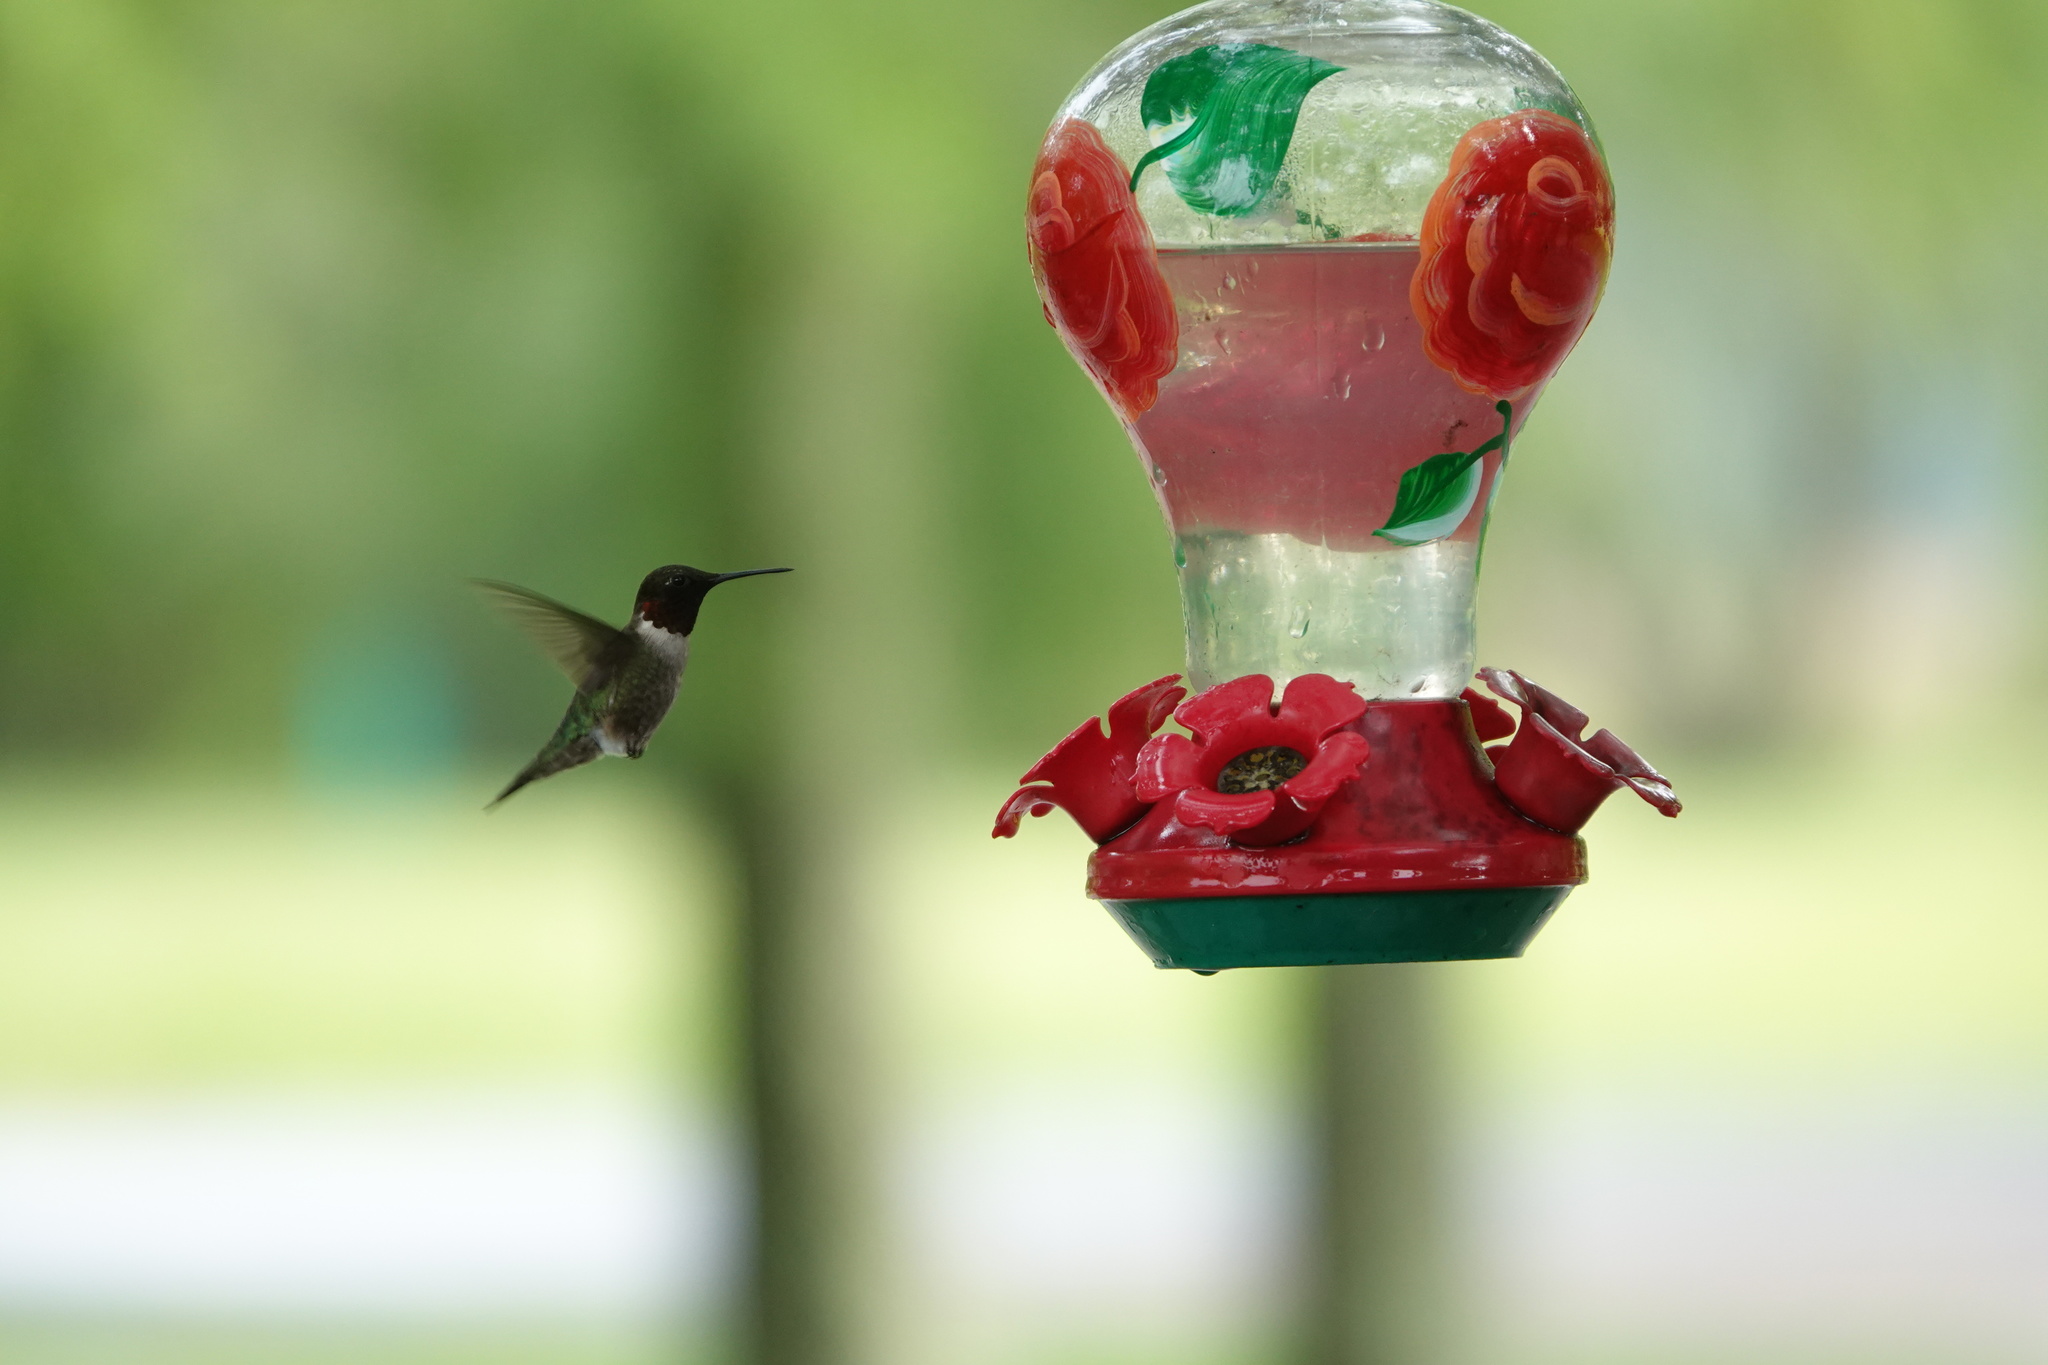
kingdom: Animalia
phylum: Chordata
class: Aves
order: Apodiformes
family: Trochilidae
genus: Archilochus
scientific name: Archilochus colubris
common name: Ruby-throated hummingbird
